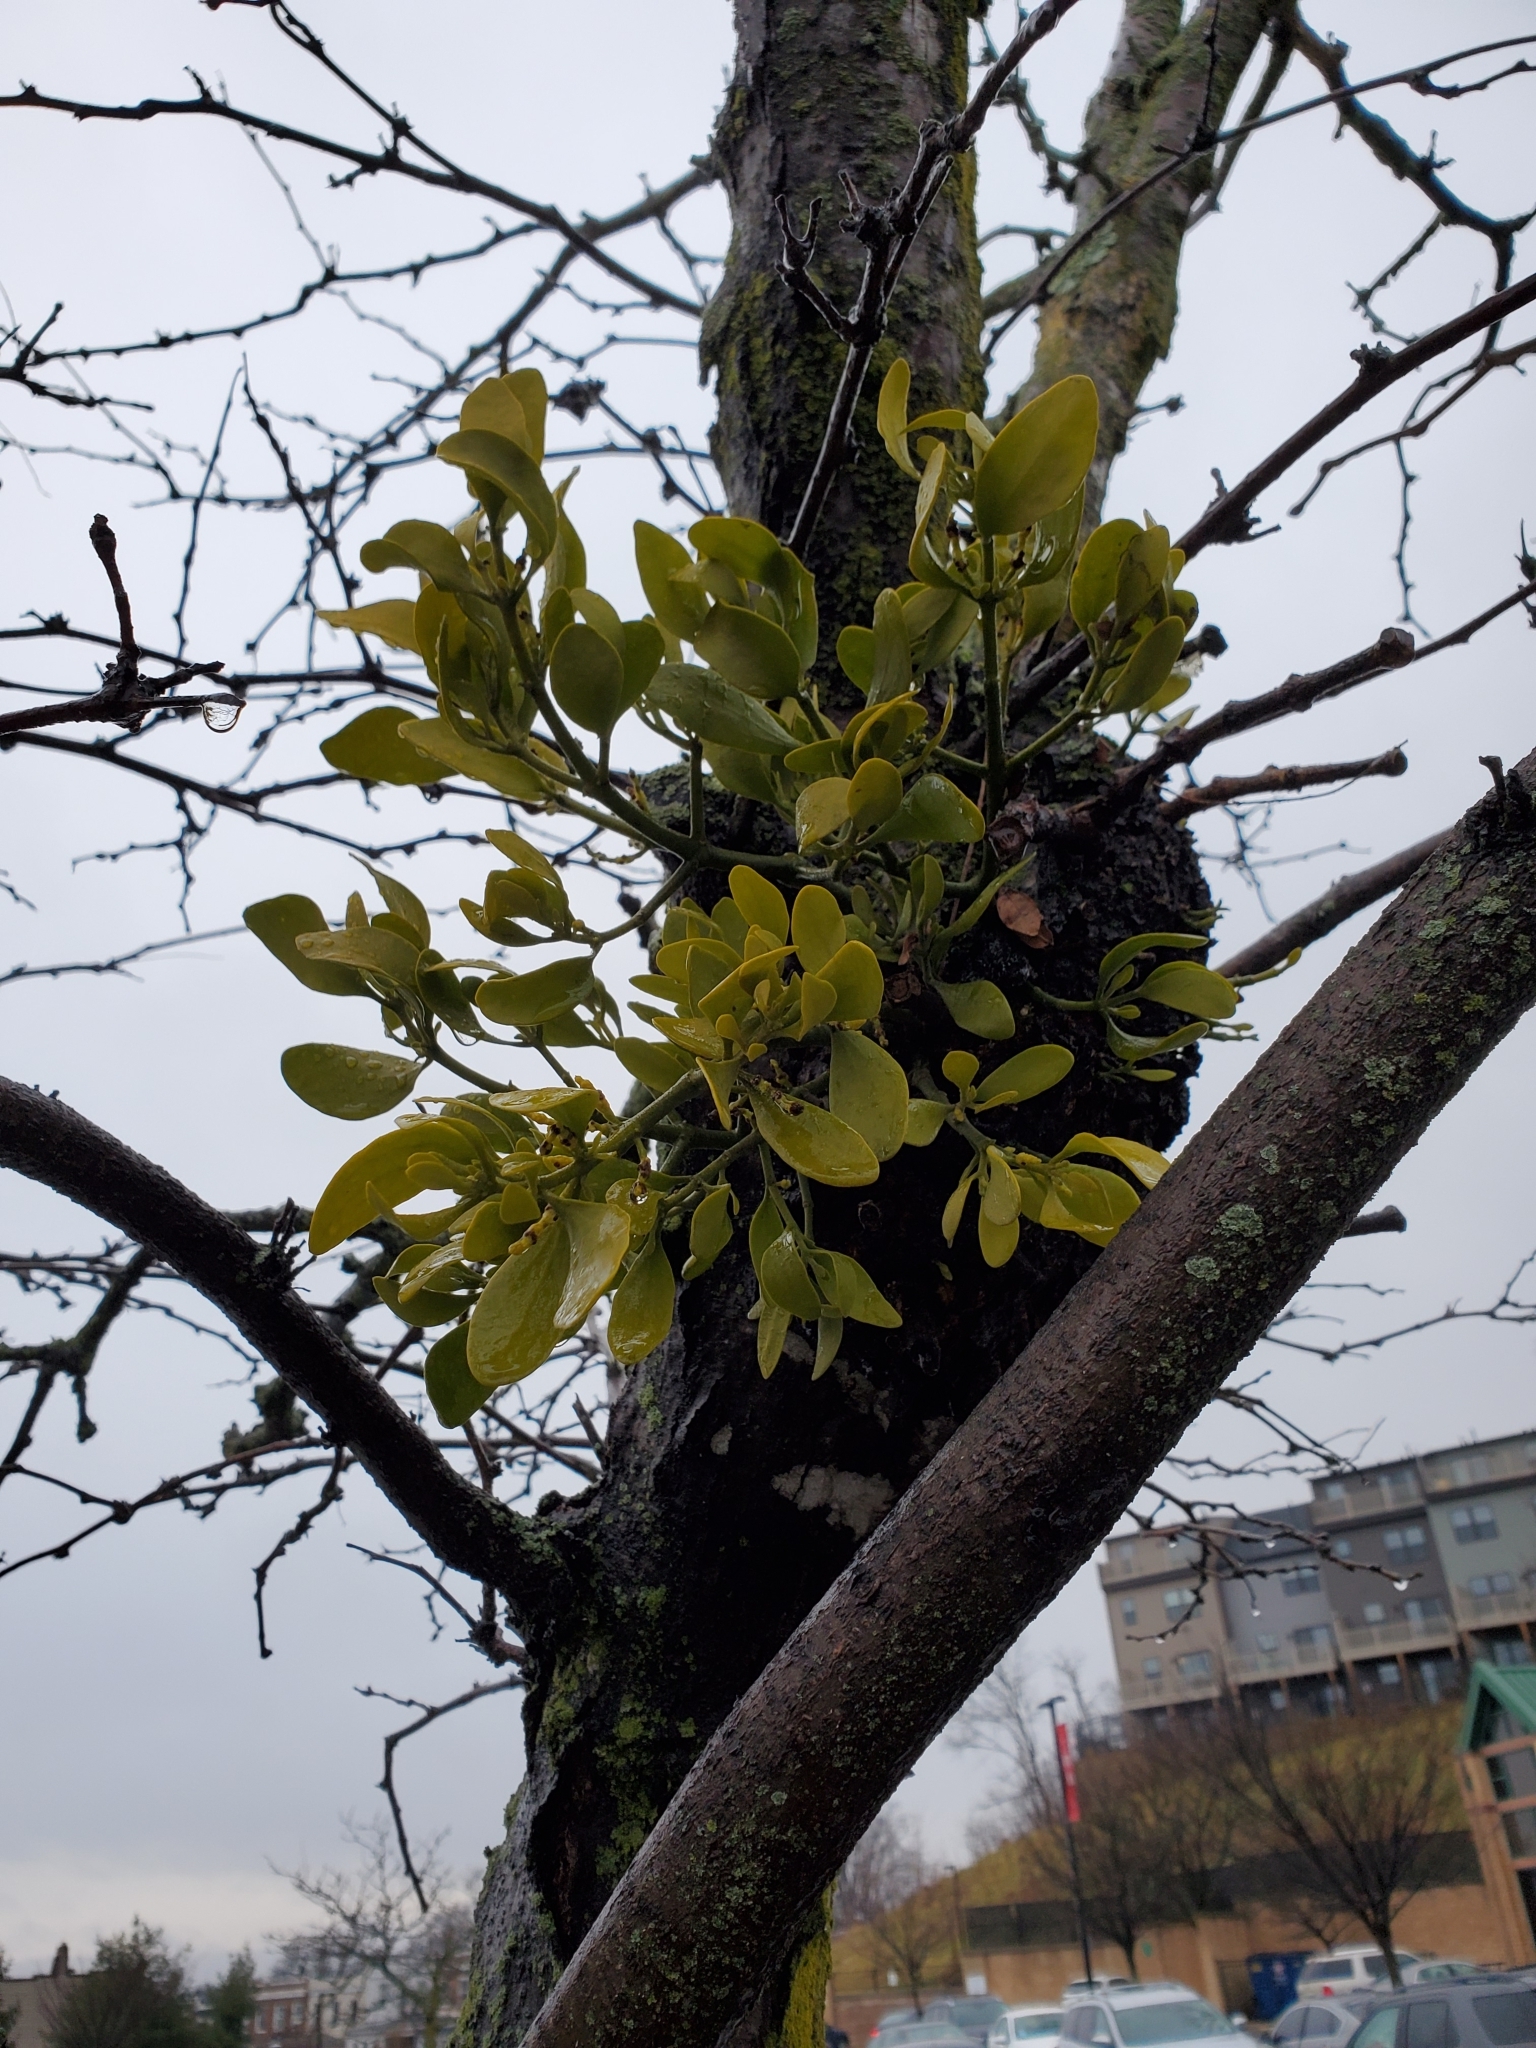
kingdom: Plantae
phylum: Tracheophyta
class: Magnoliopsida
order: Santalales
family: Viscaceae
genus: Phoradendron
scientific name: Phoradendron leucarpum
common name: Pacific mistletoe
